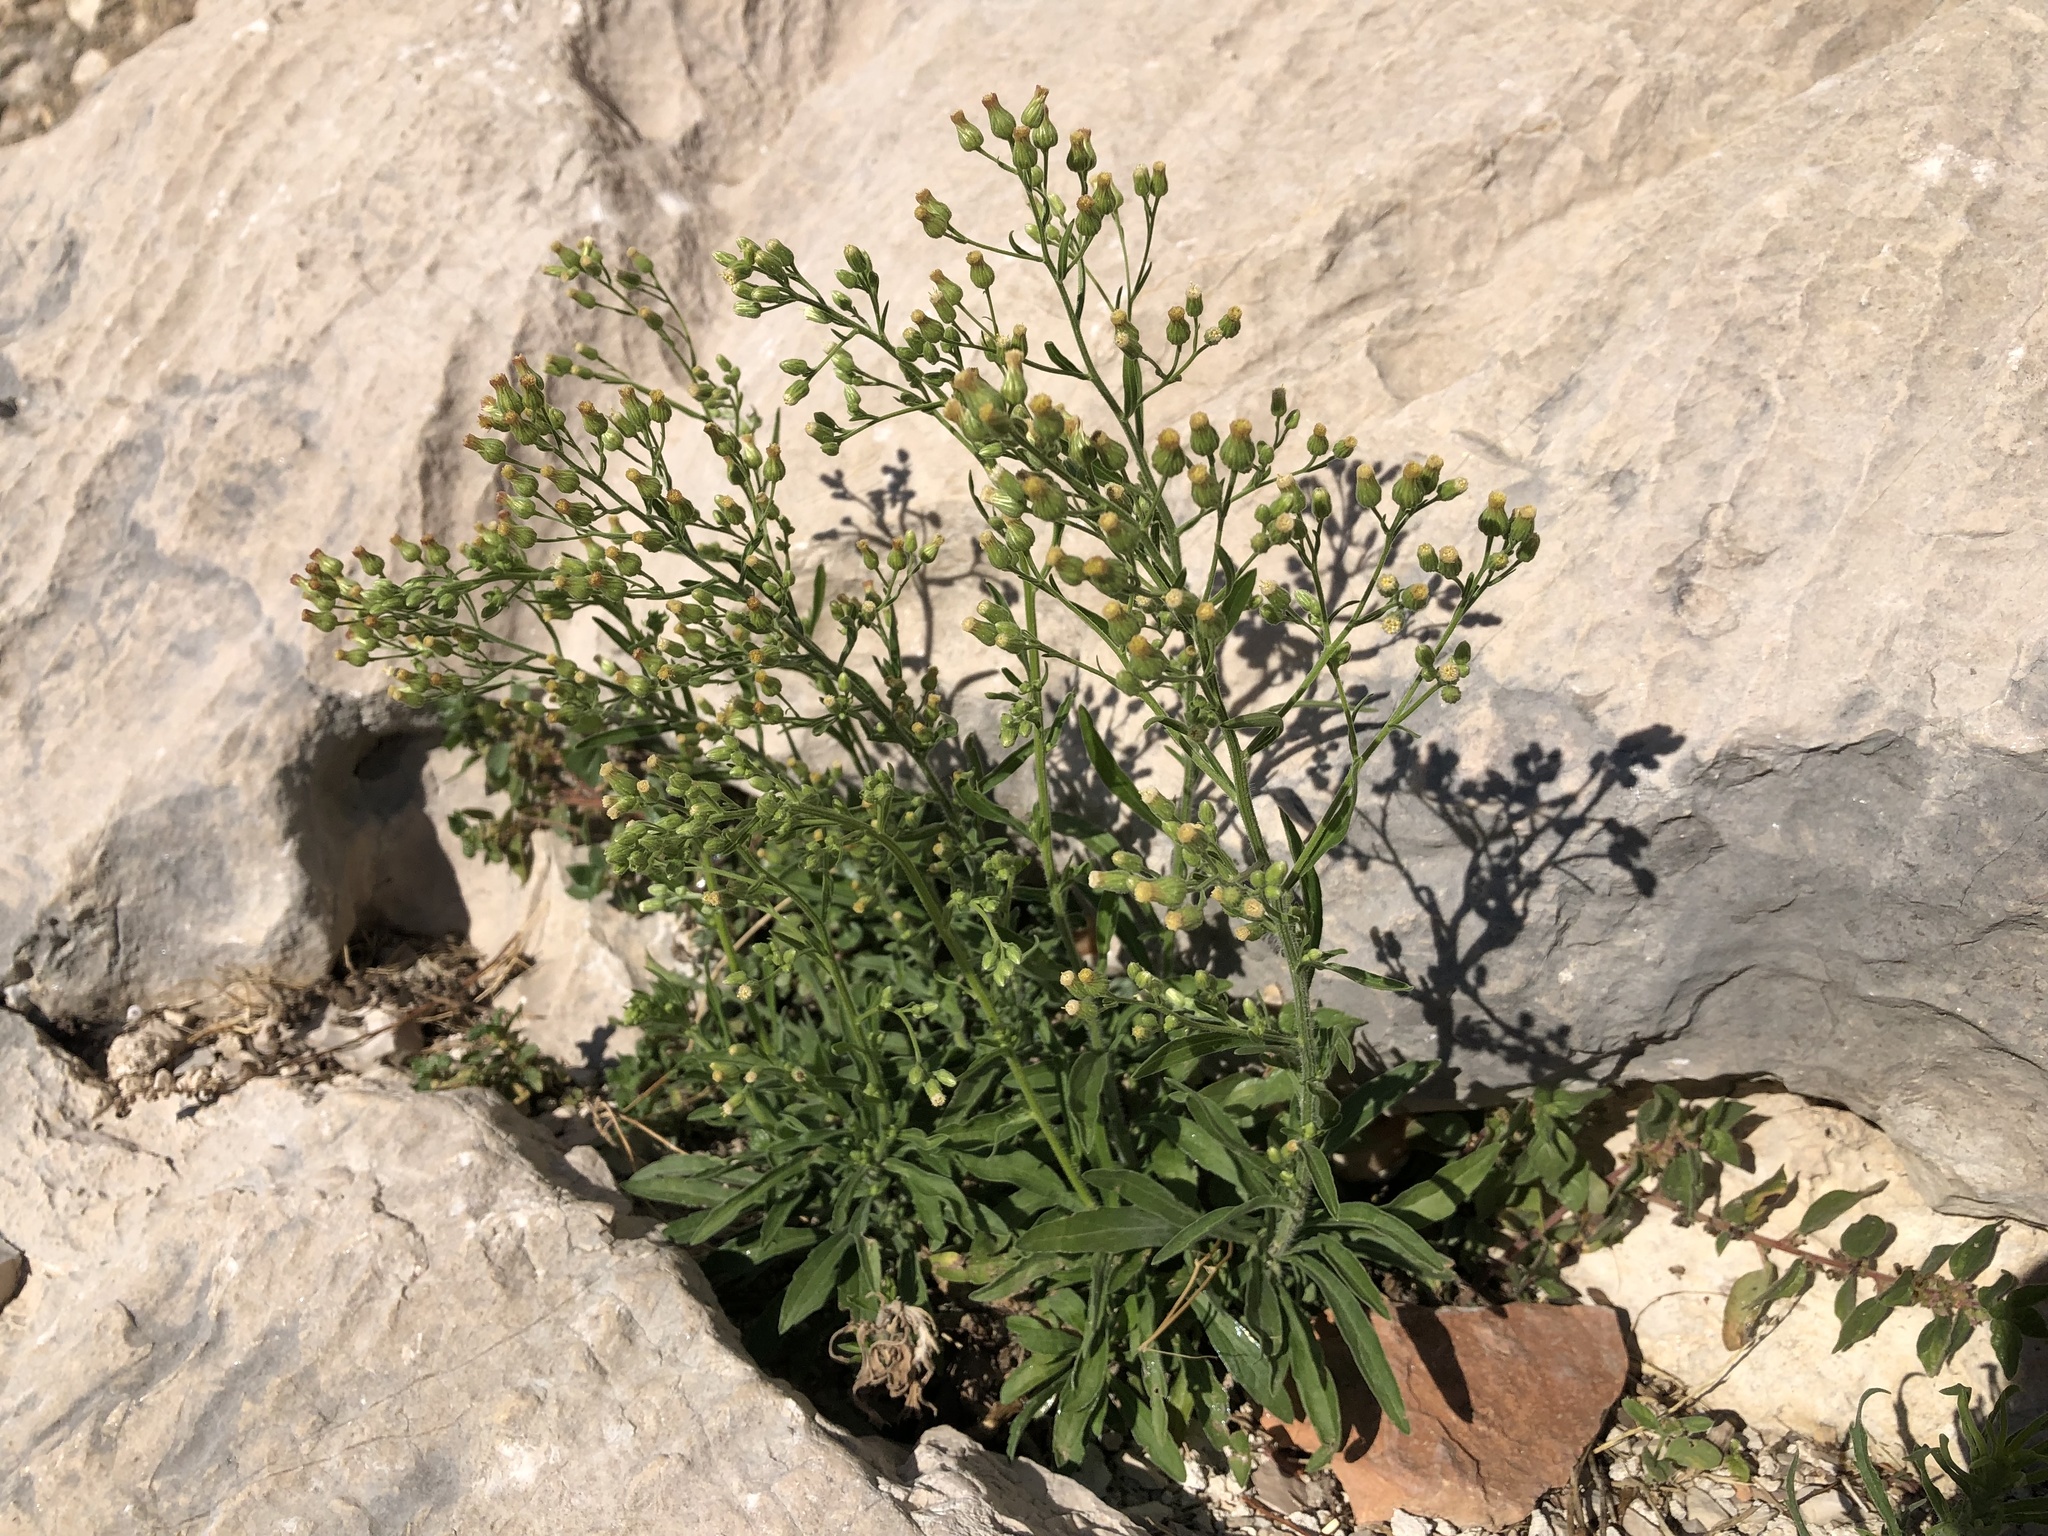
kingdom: Plantae
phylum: Tracheophyta
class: Magnoliopsida
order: Asterales
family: Asteraceae
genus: Erigeron
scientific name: Erigeron canadensis
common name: Canadian fleabane
